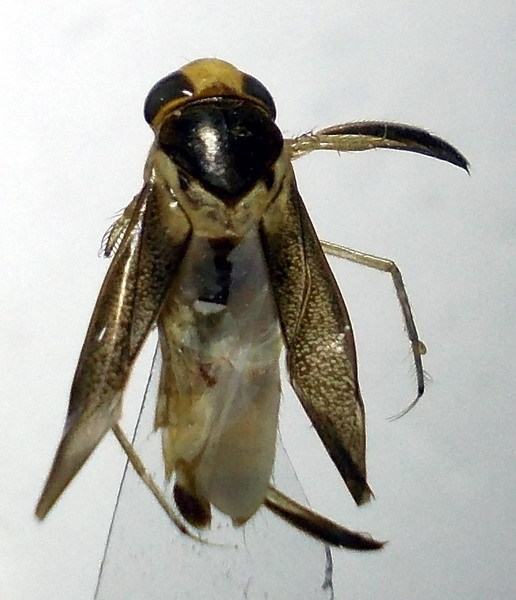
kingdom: Animalia
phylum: Arthropoda
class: Insecta
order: Hemiptera
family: Corixidae
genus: Cymatia
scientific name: Cymatia rogenhoferi
